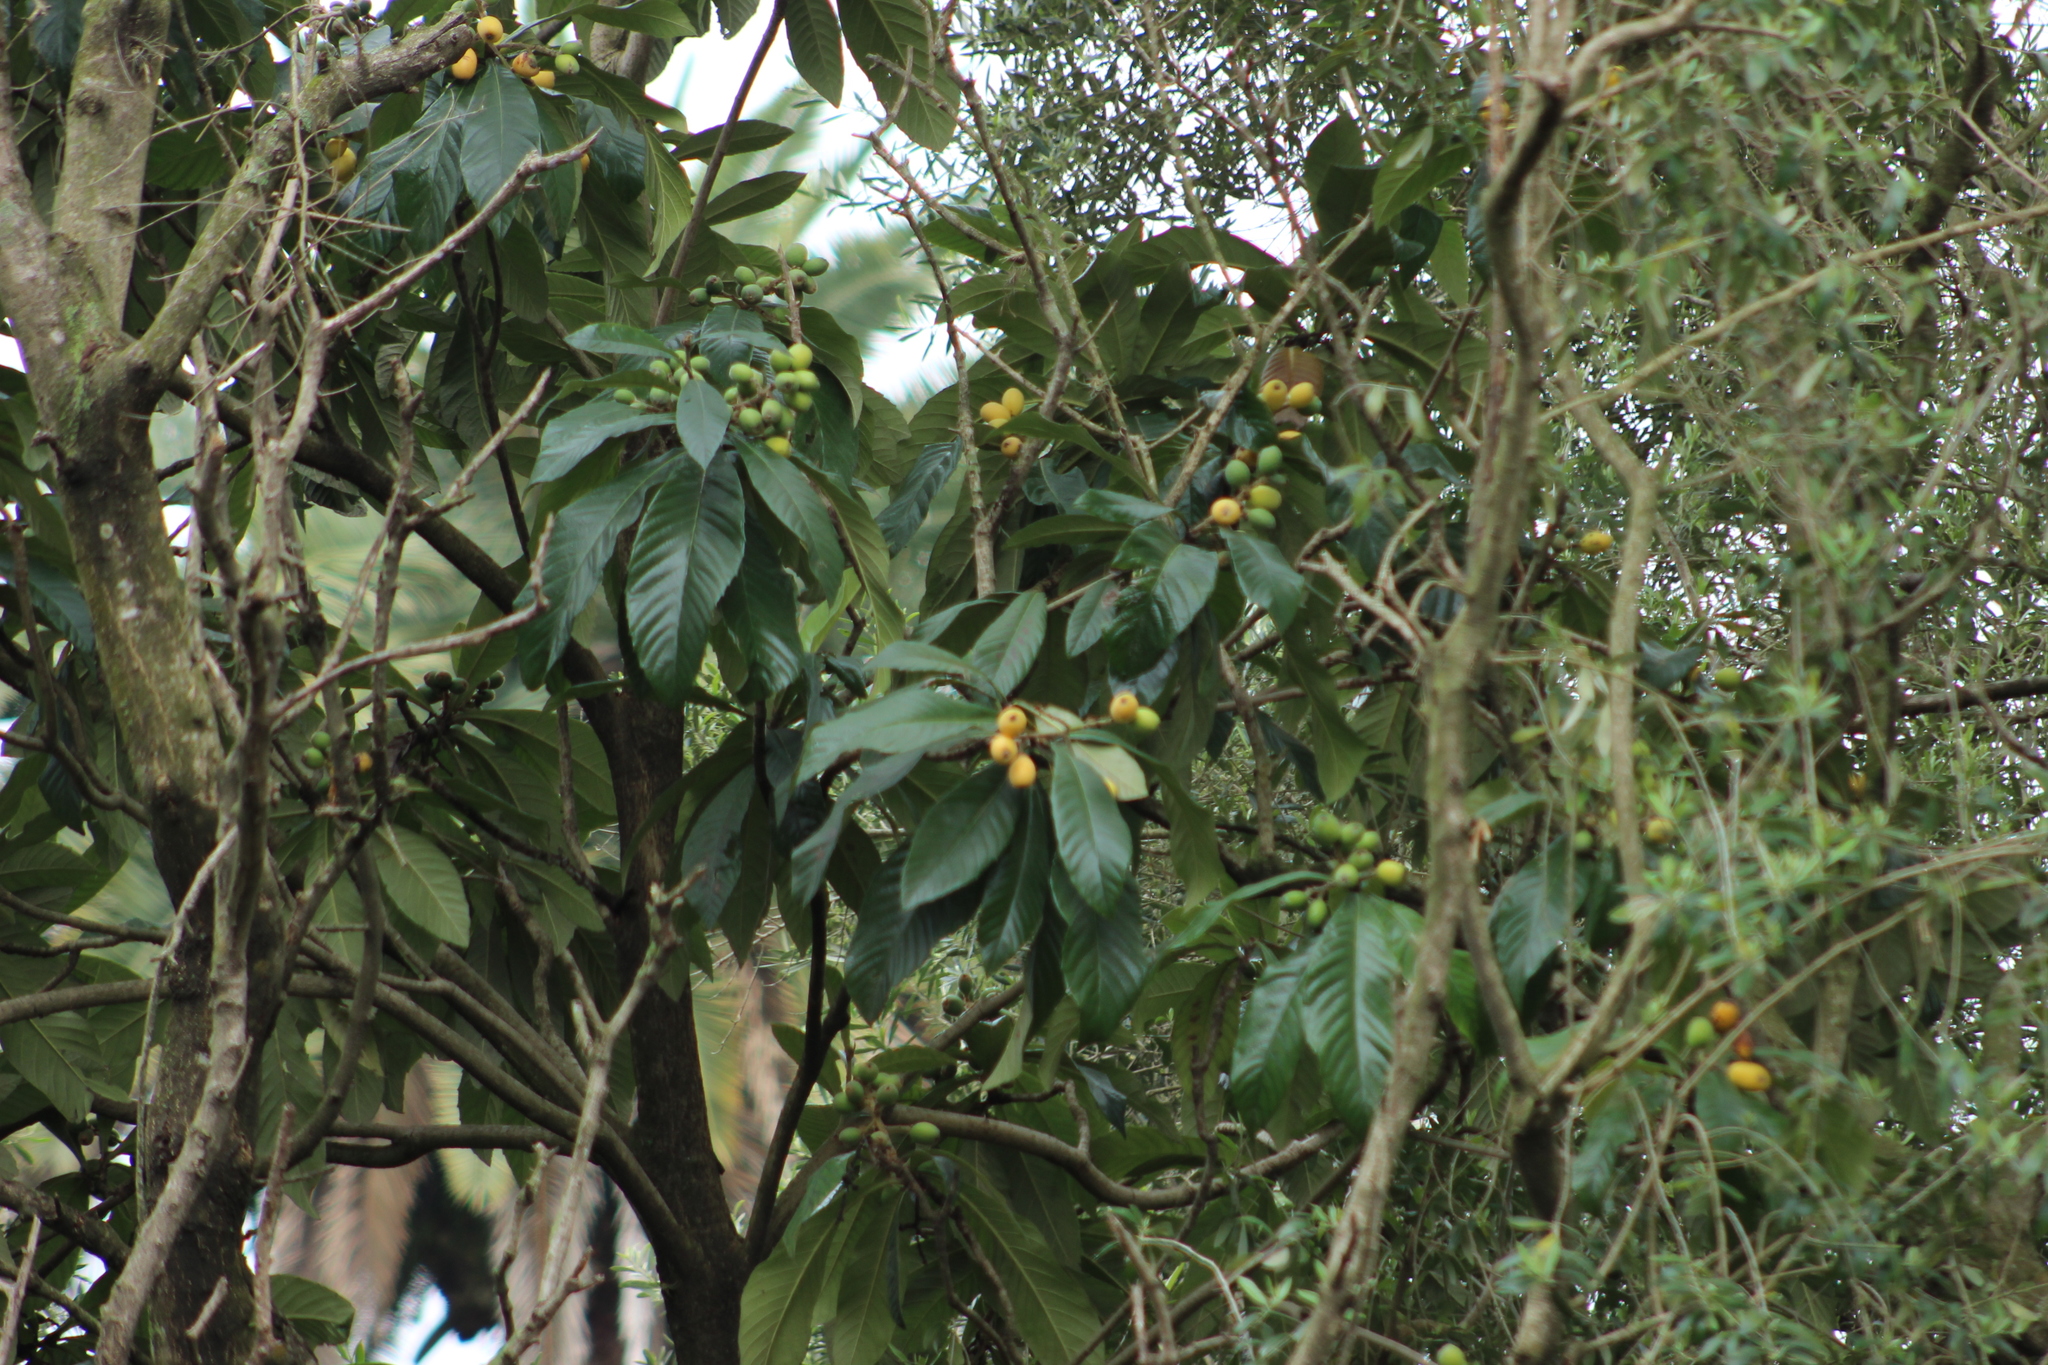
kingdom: Plantae
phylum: Tracheophyta
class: Magnoliopsida
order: Rosales
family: Rosaceae
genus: Rhaphiolepis
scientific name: Rhaphiolepis bibas
